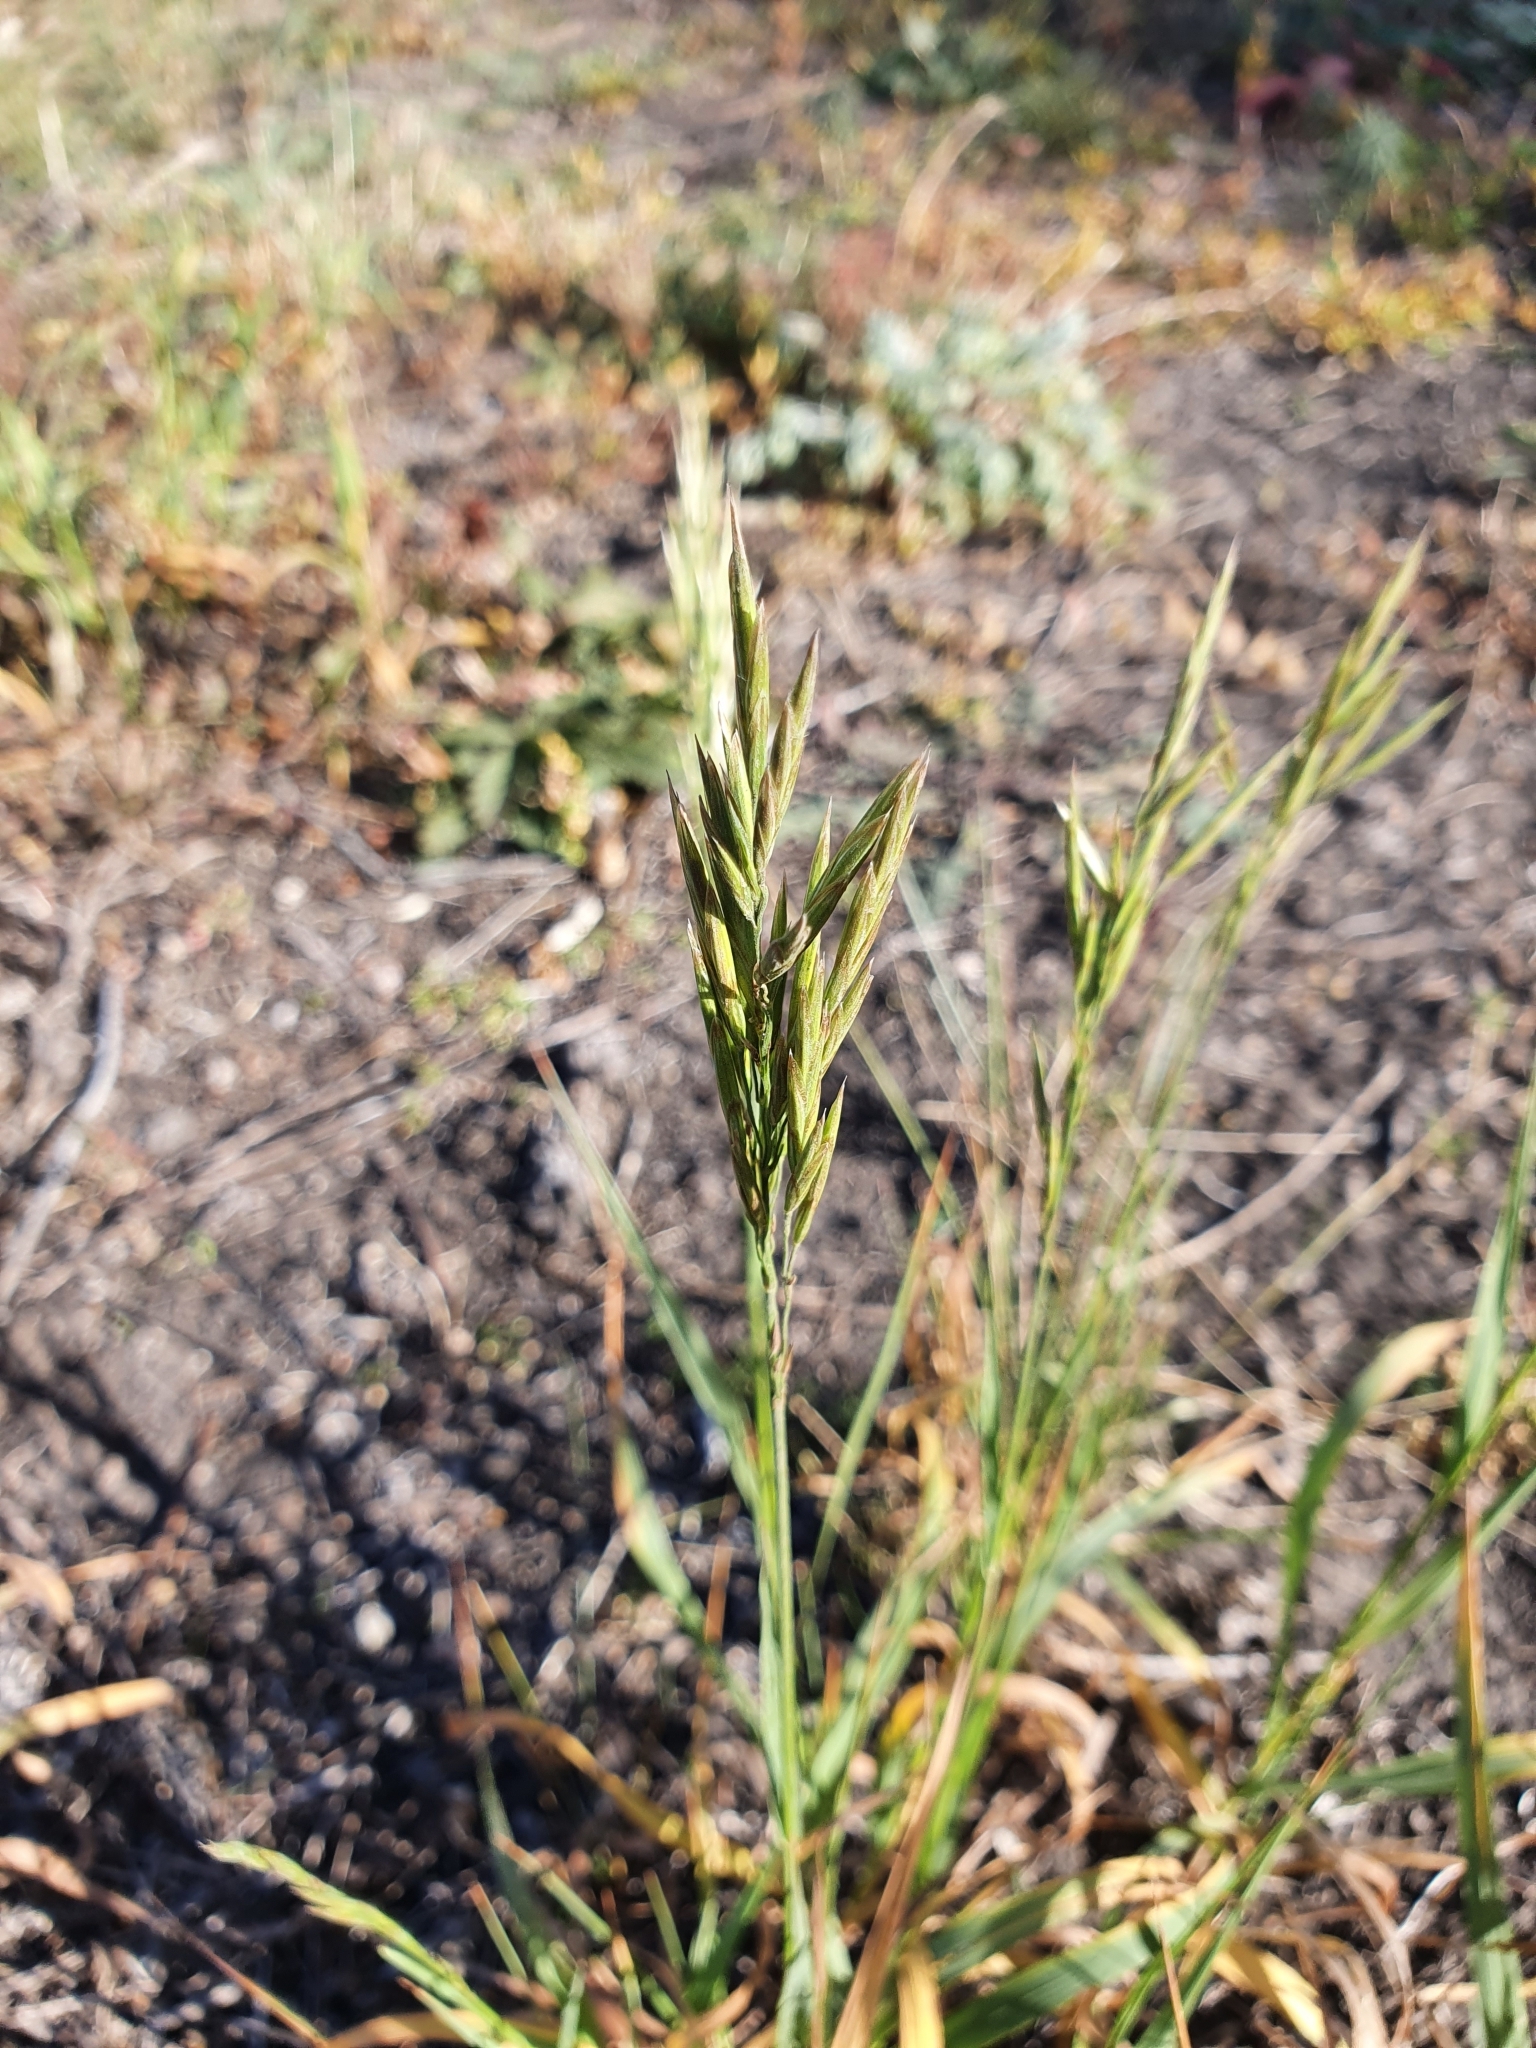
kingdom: Plantae
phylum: Tracheophyta
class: Liliopsida
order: Poales
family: Poaceae
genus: Bromus
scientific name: Bromus inermis
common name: Smooth brome
